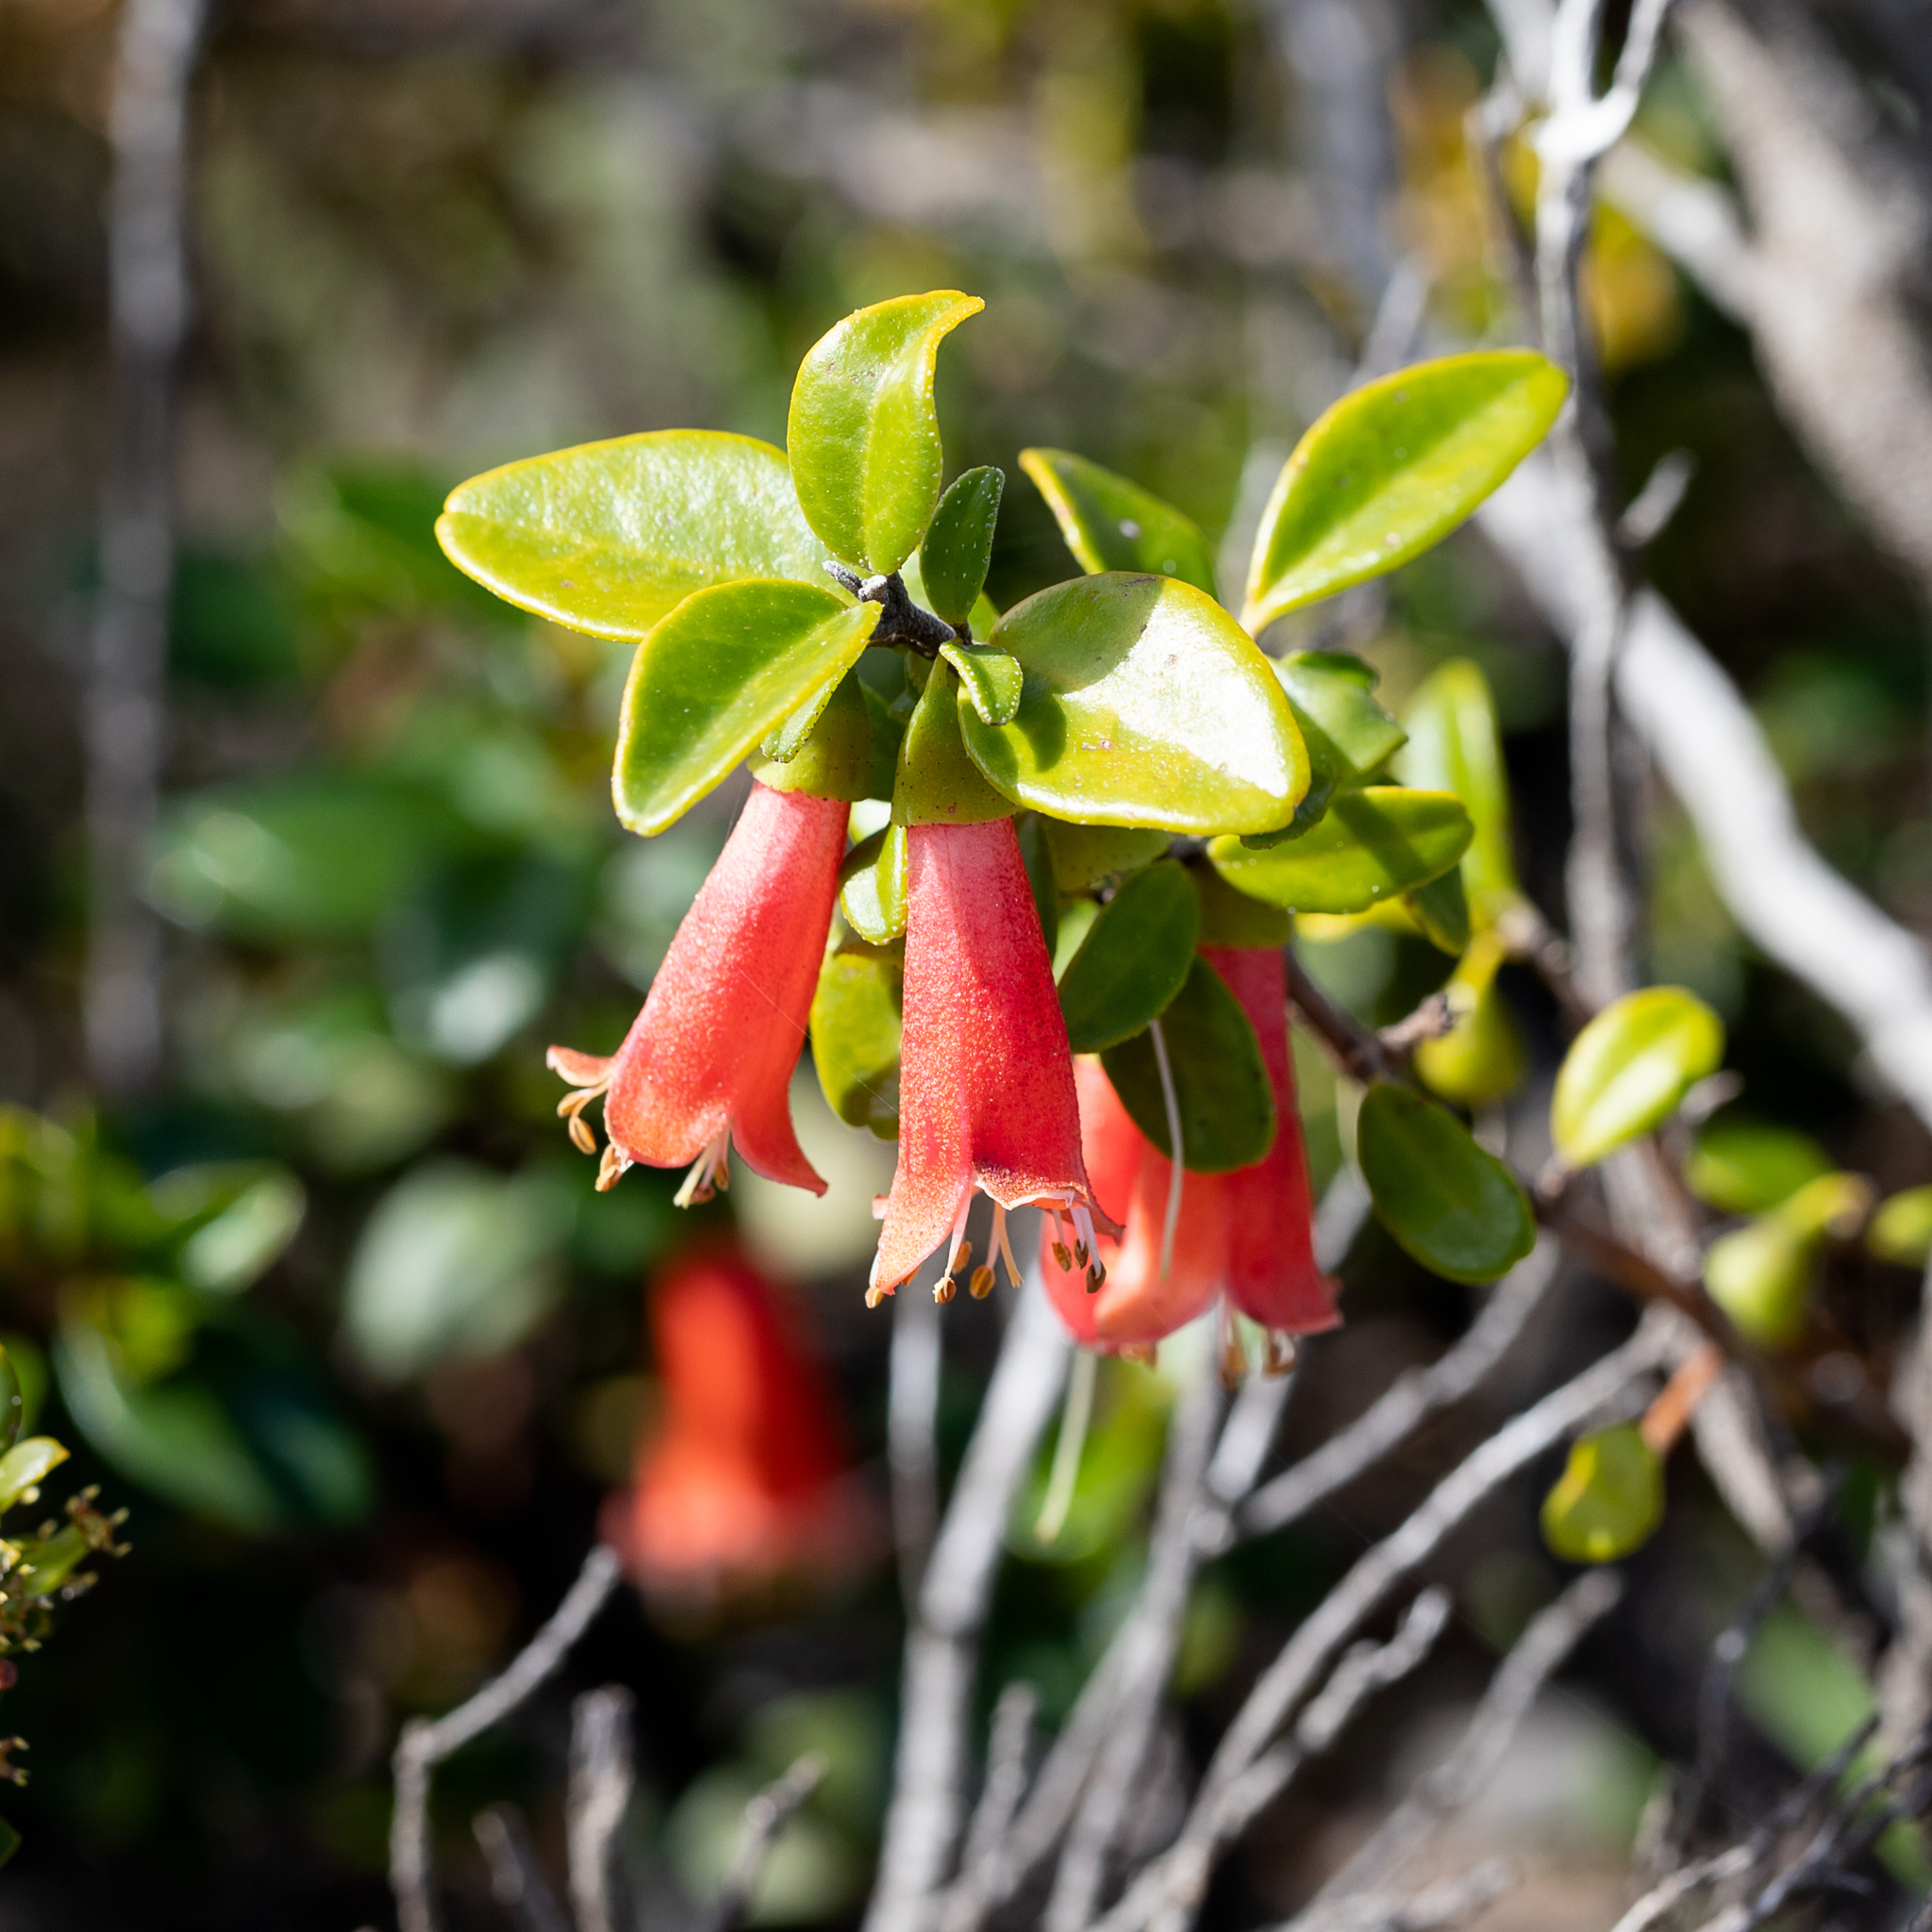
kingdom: Plantae
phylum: Tracheophyta
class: Magnoliopsida
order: Sapindales
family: Rutaceae
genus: Correa
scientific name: Correa pulchella
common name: Salmon correa
